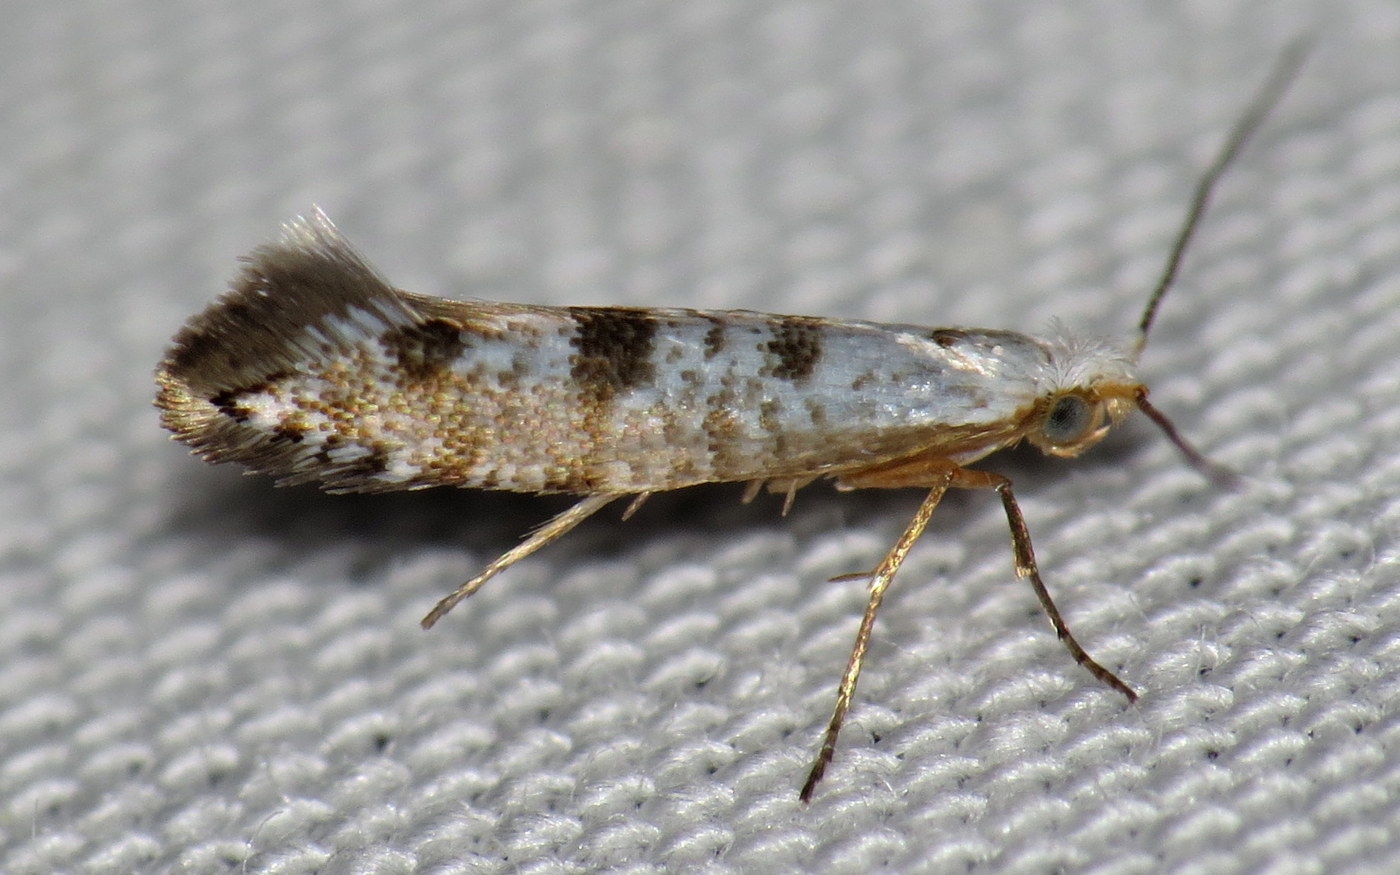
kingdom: Animalia
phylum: Arthropoda
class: Insecta
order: Lepidoptera
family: Argyresthiidae
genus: Argyresthia
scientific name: Argyresthia thuiella
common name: Arborvitae leafminer
